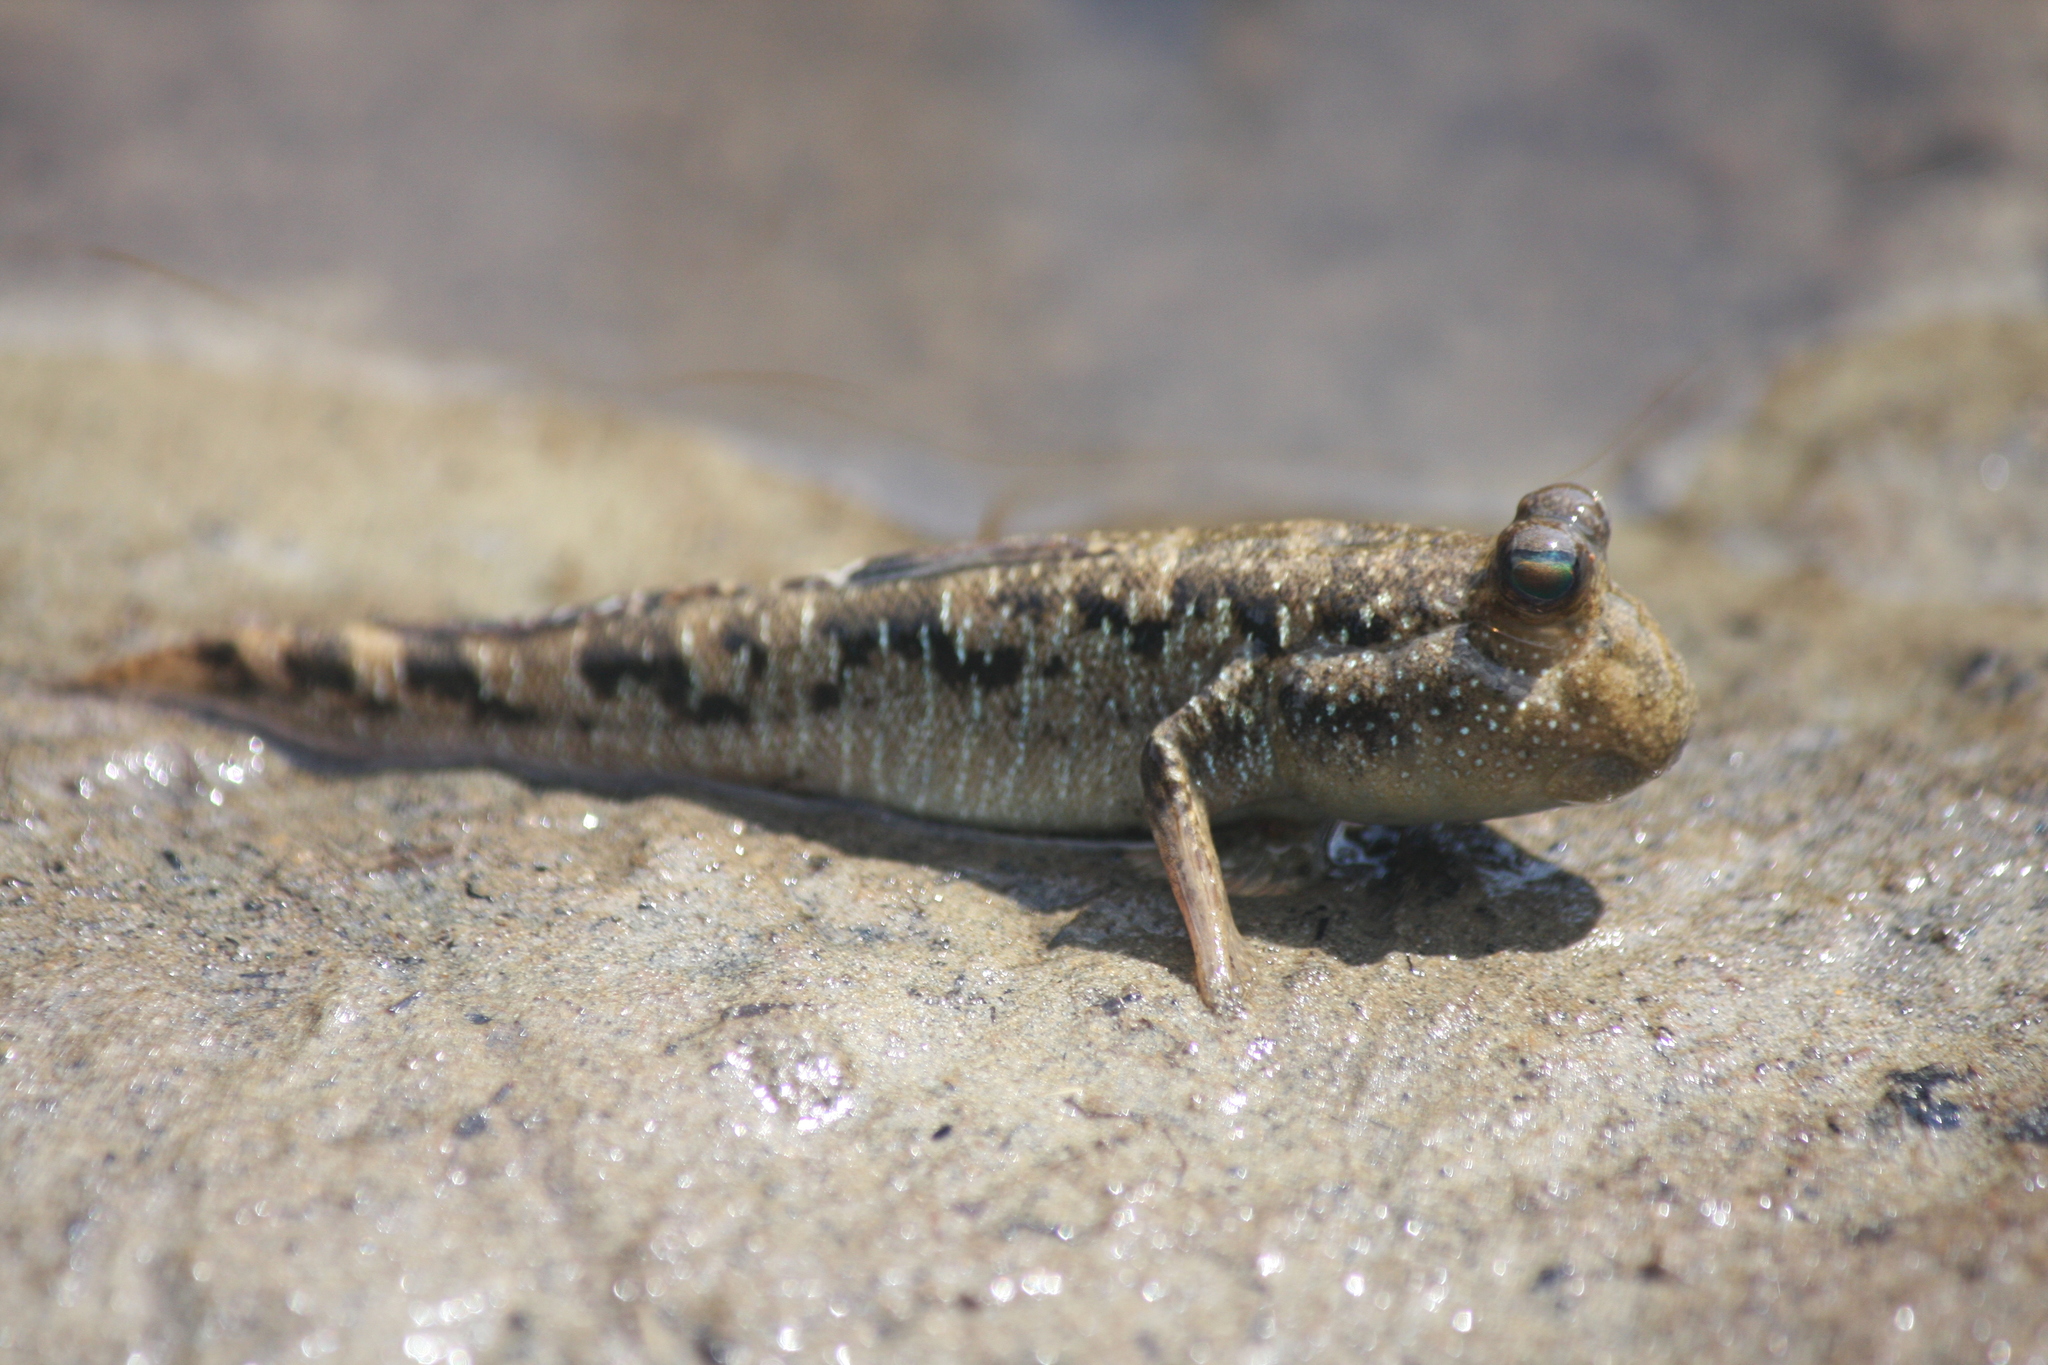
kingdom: Animalia
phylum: Chordata
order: Perciformes
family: Gobiidae
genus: Periophthalmus
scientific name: Periophthalmus argentilineatus
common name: Barred mudskipper
